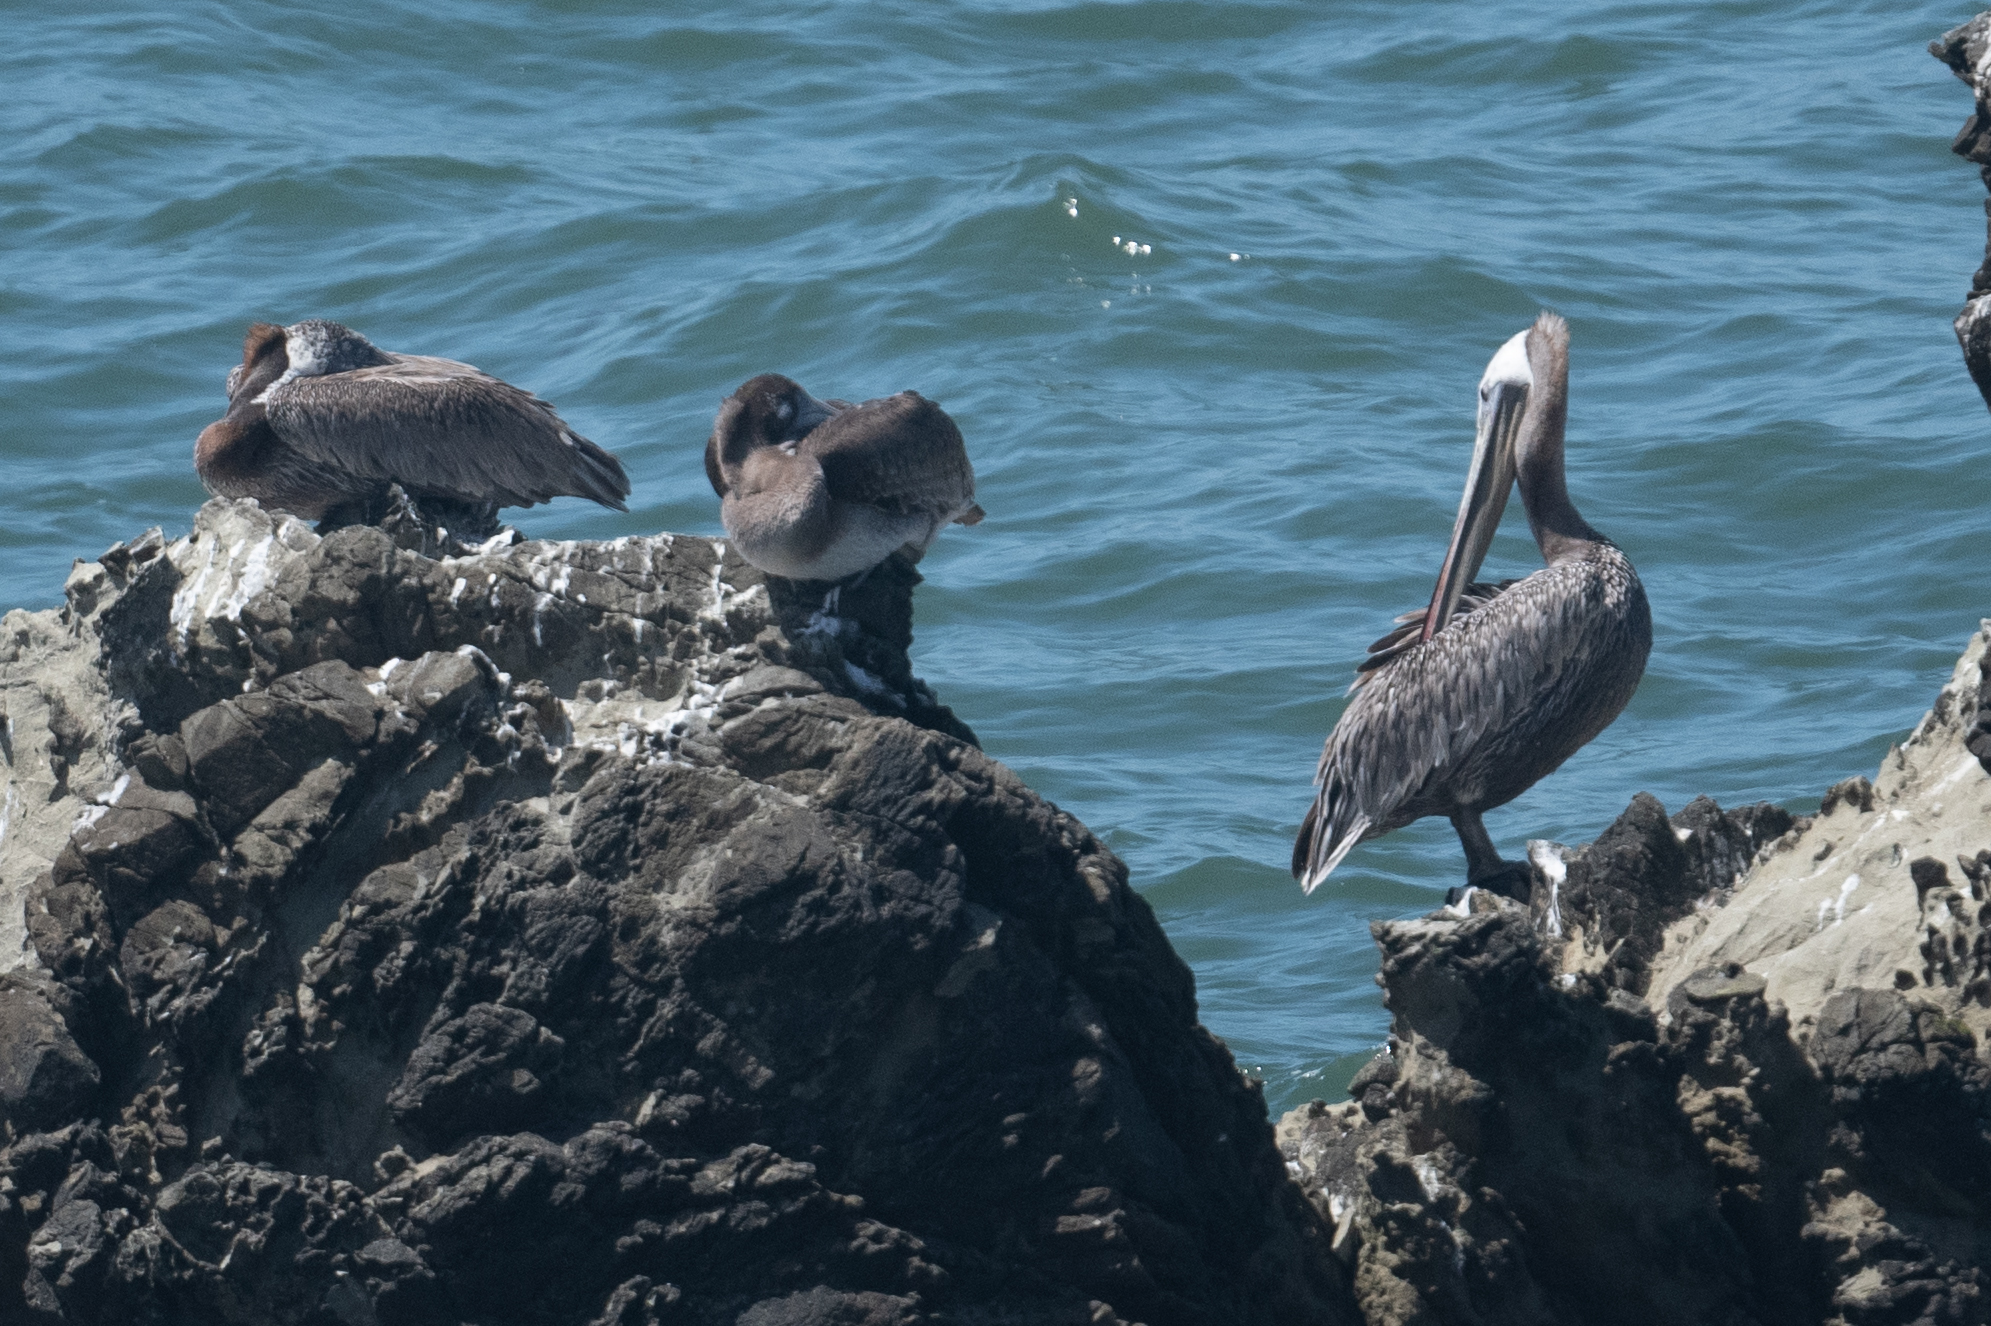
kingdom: Animalia
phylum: Chordata
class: Aves
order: Pelecaniformes
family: Pelecanidae
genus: Pelecanus
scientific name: Pelecanus occidentalis
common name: Brown pelican
